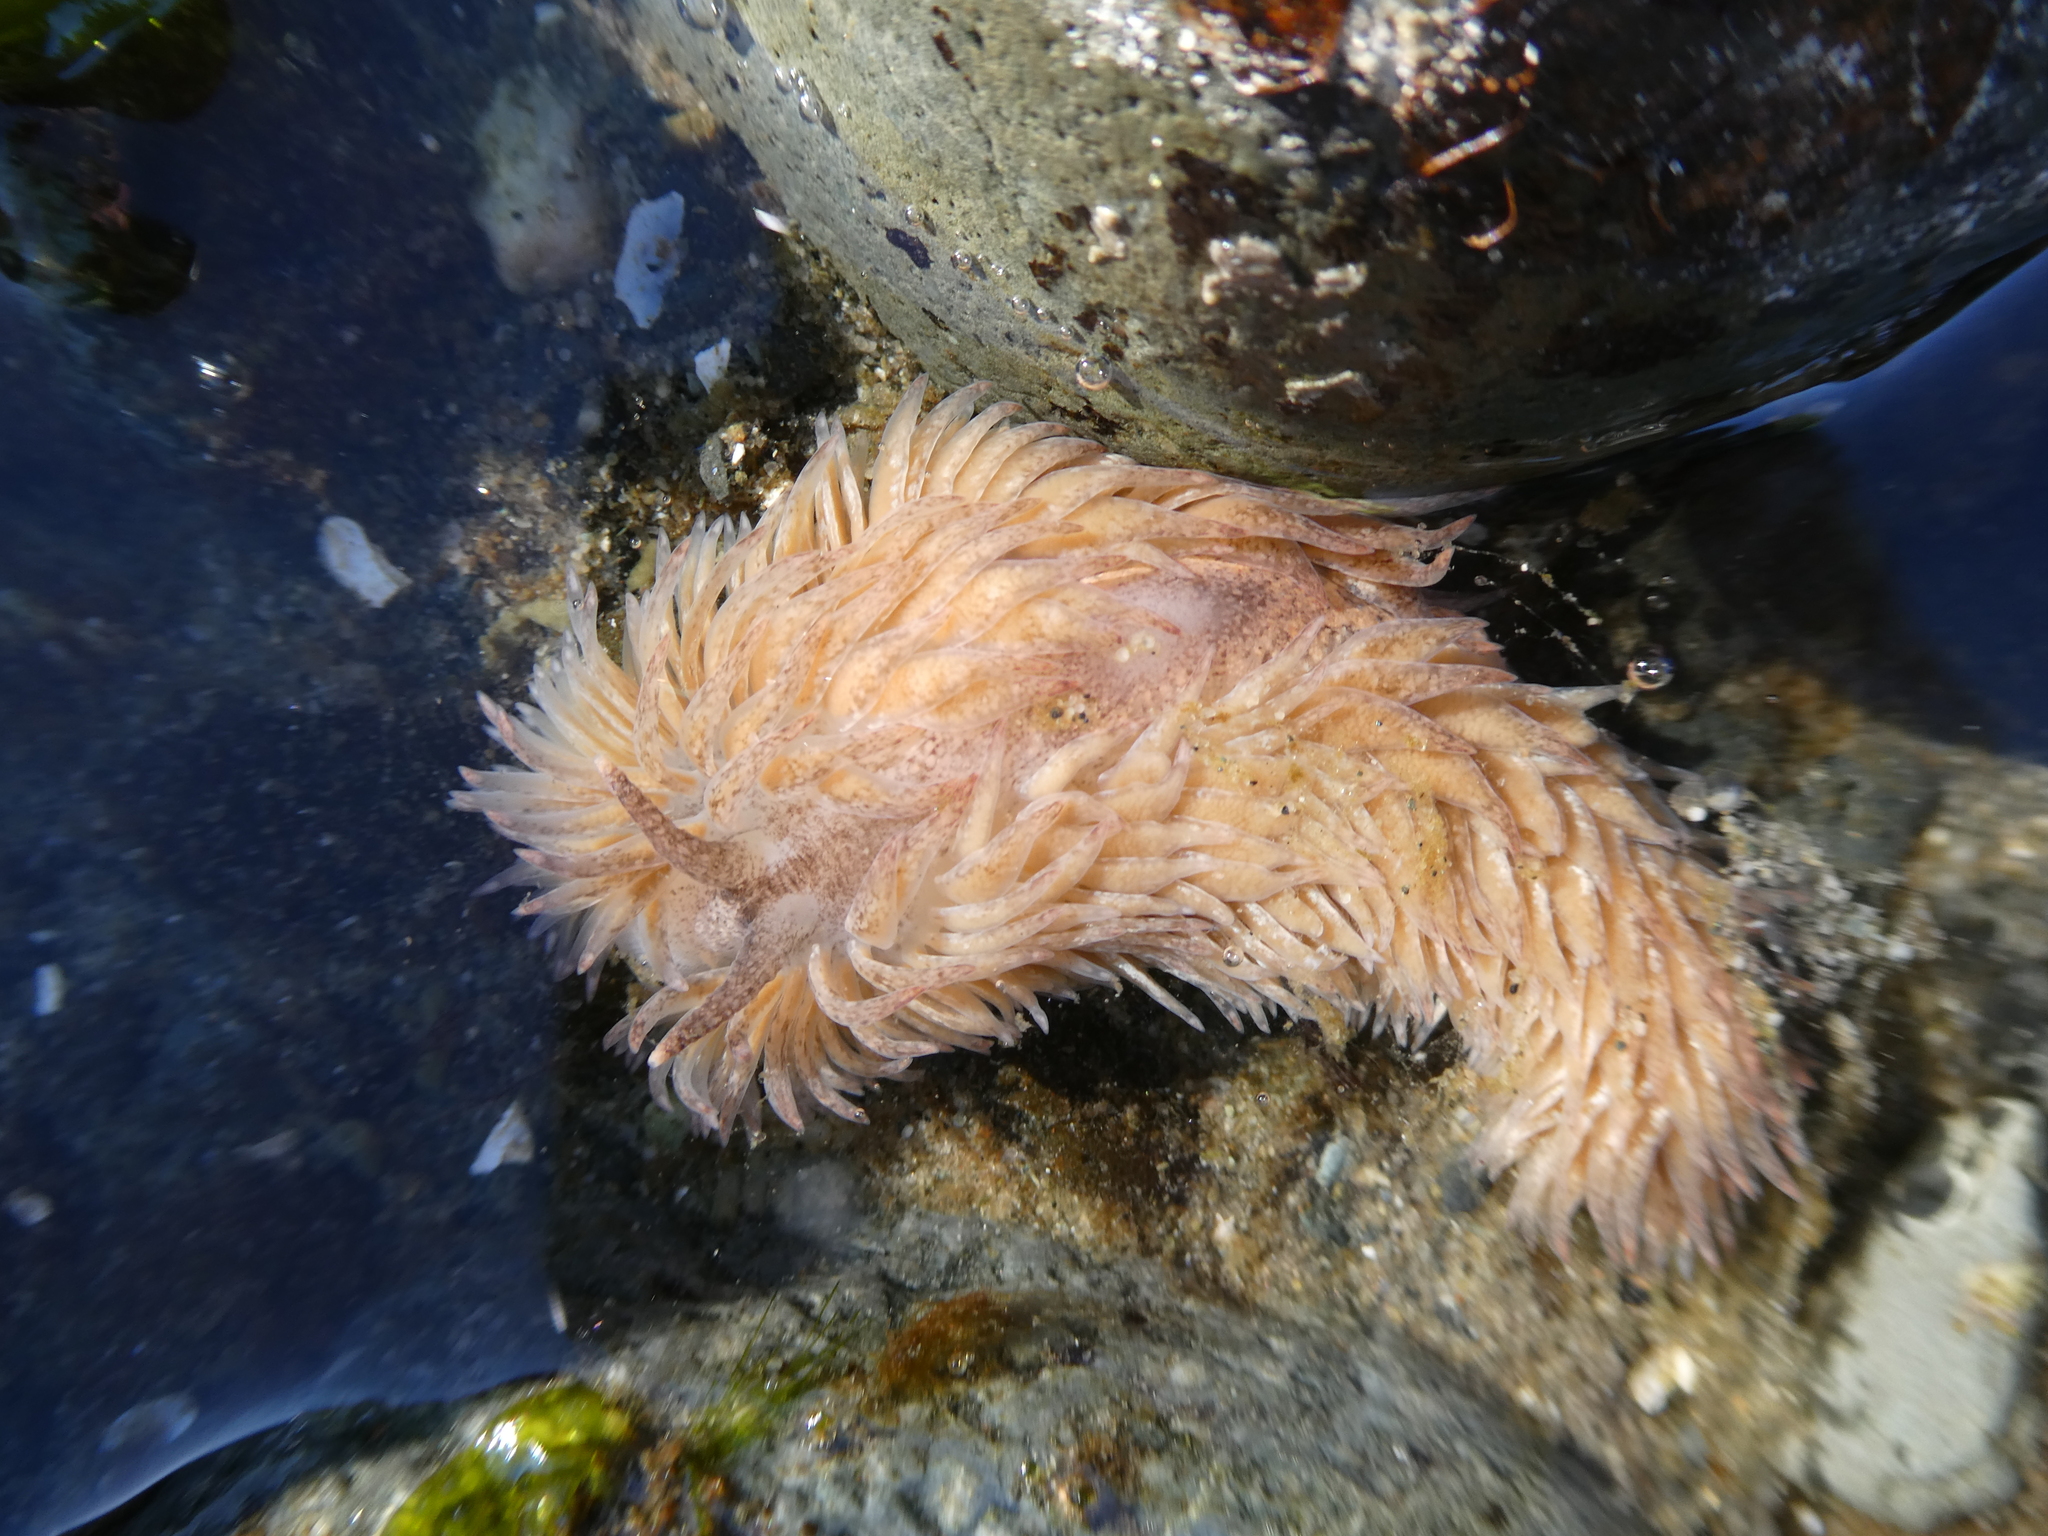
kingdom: Animalia
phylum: Mollusca
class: Gastropoda
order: Nudibranchia
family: Aeolidiidae
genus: Aeolidia
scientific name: Aeolidia loui
